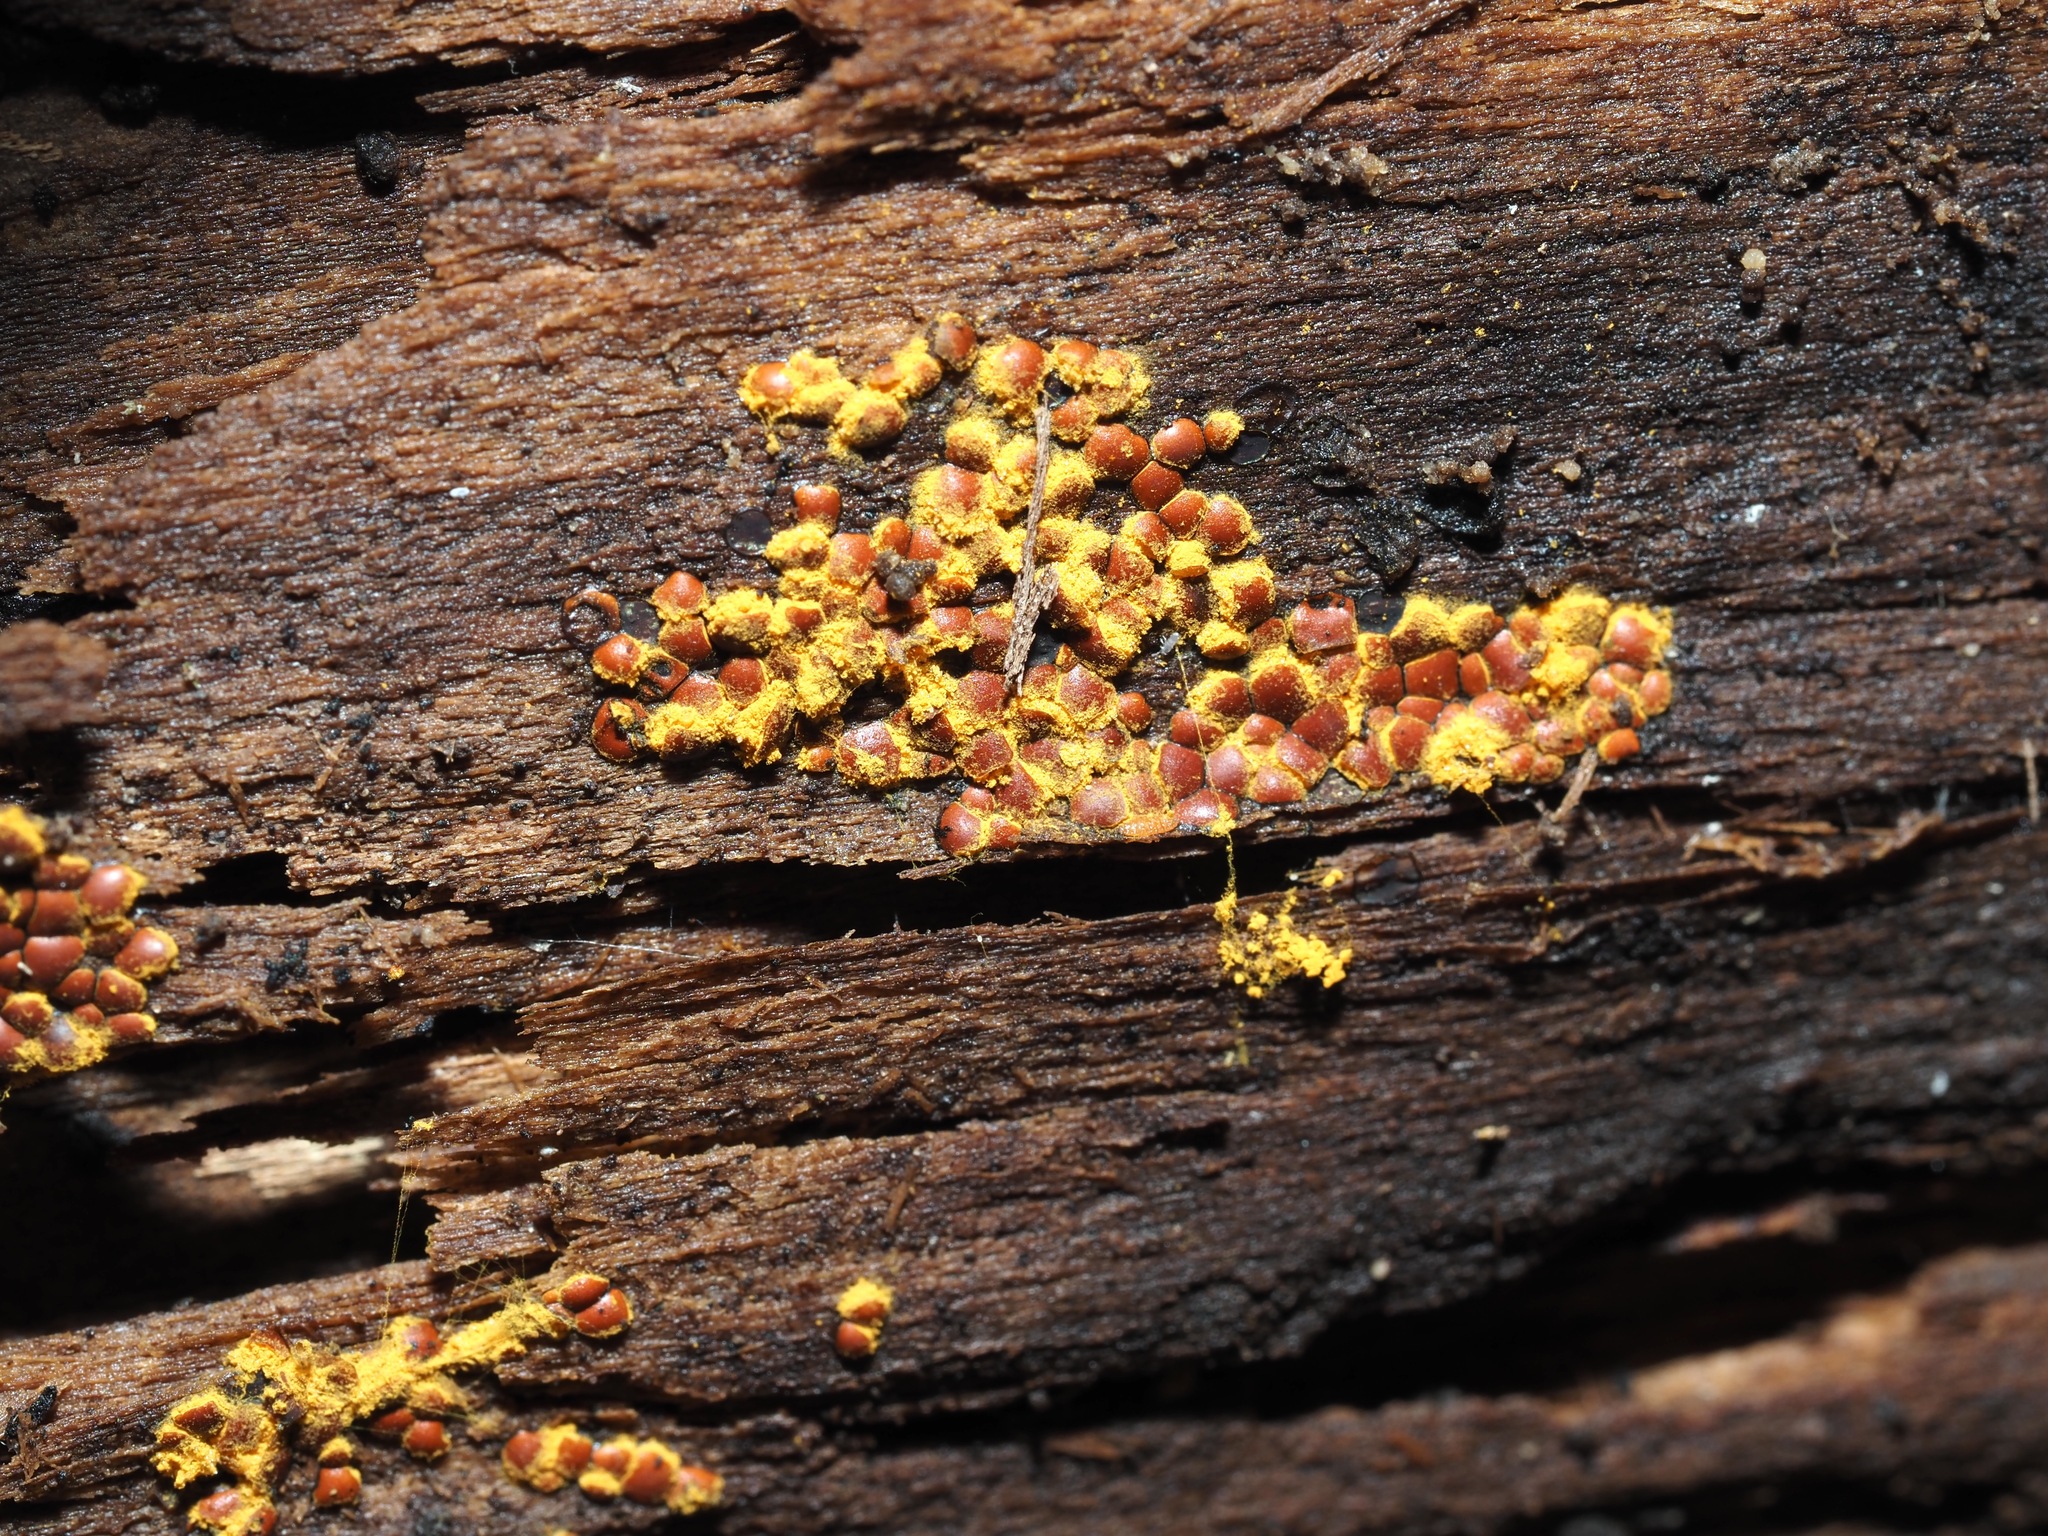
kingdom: Protozoa
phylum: Mycetozoa
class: Myxomycetes
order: Trichiales
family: Trichiaceae
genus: Perichaena
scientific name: Perichaena depressa
